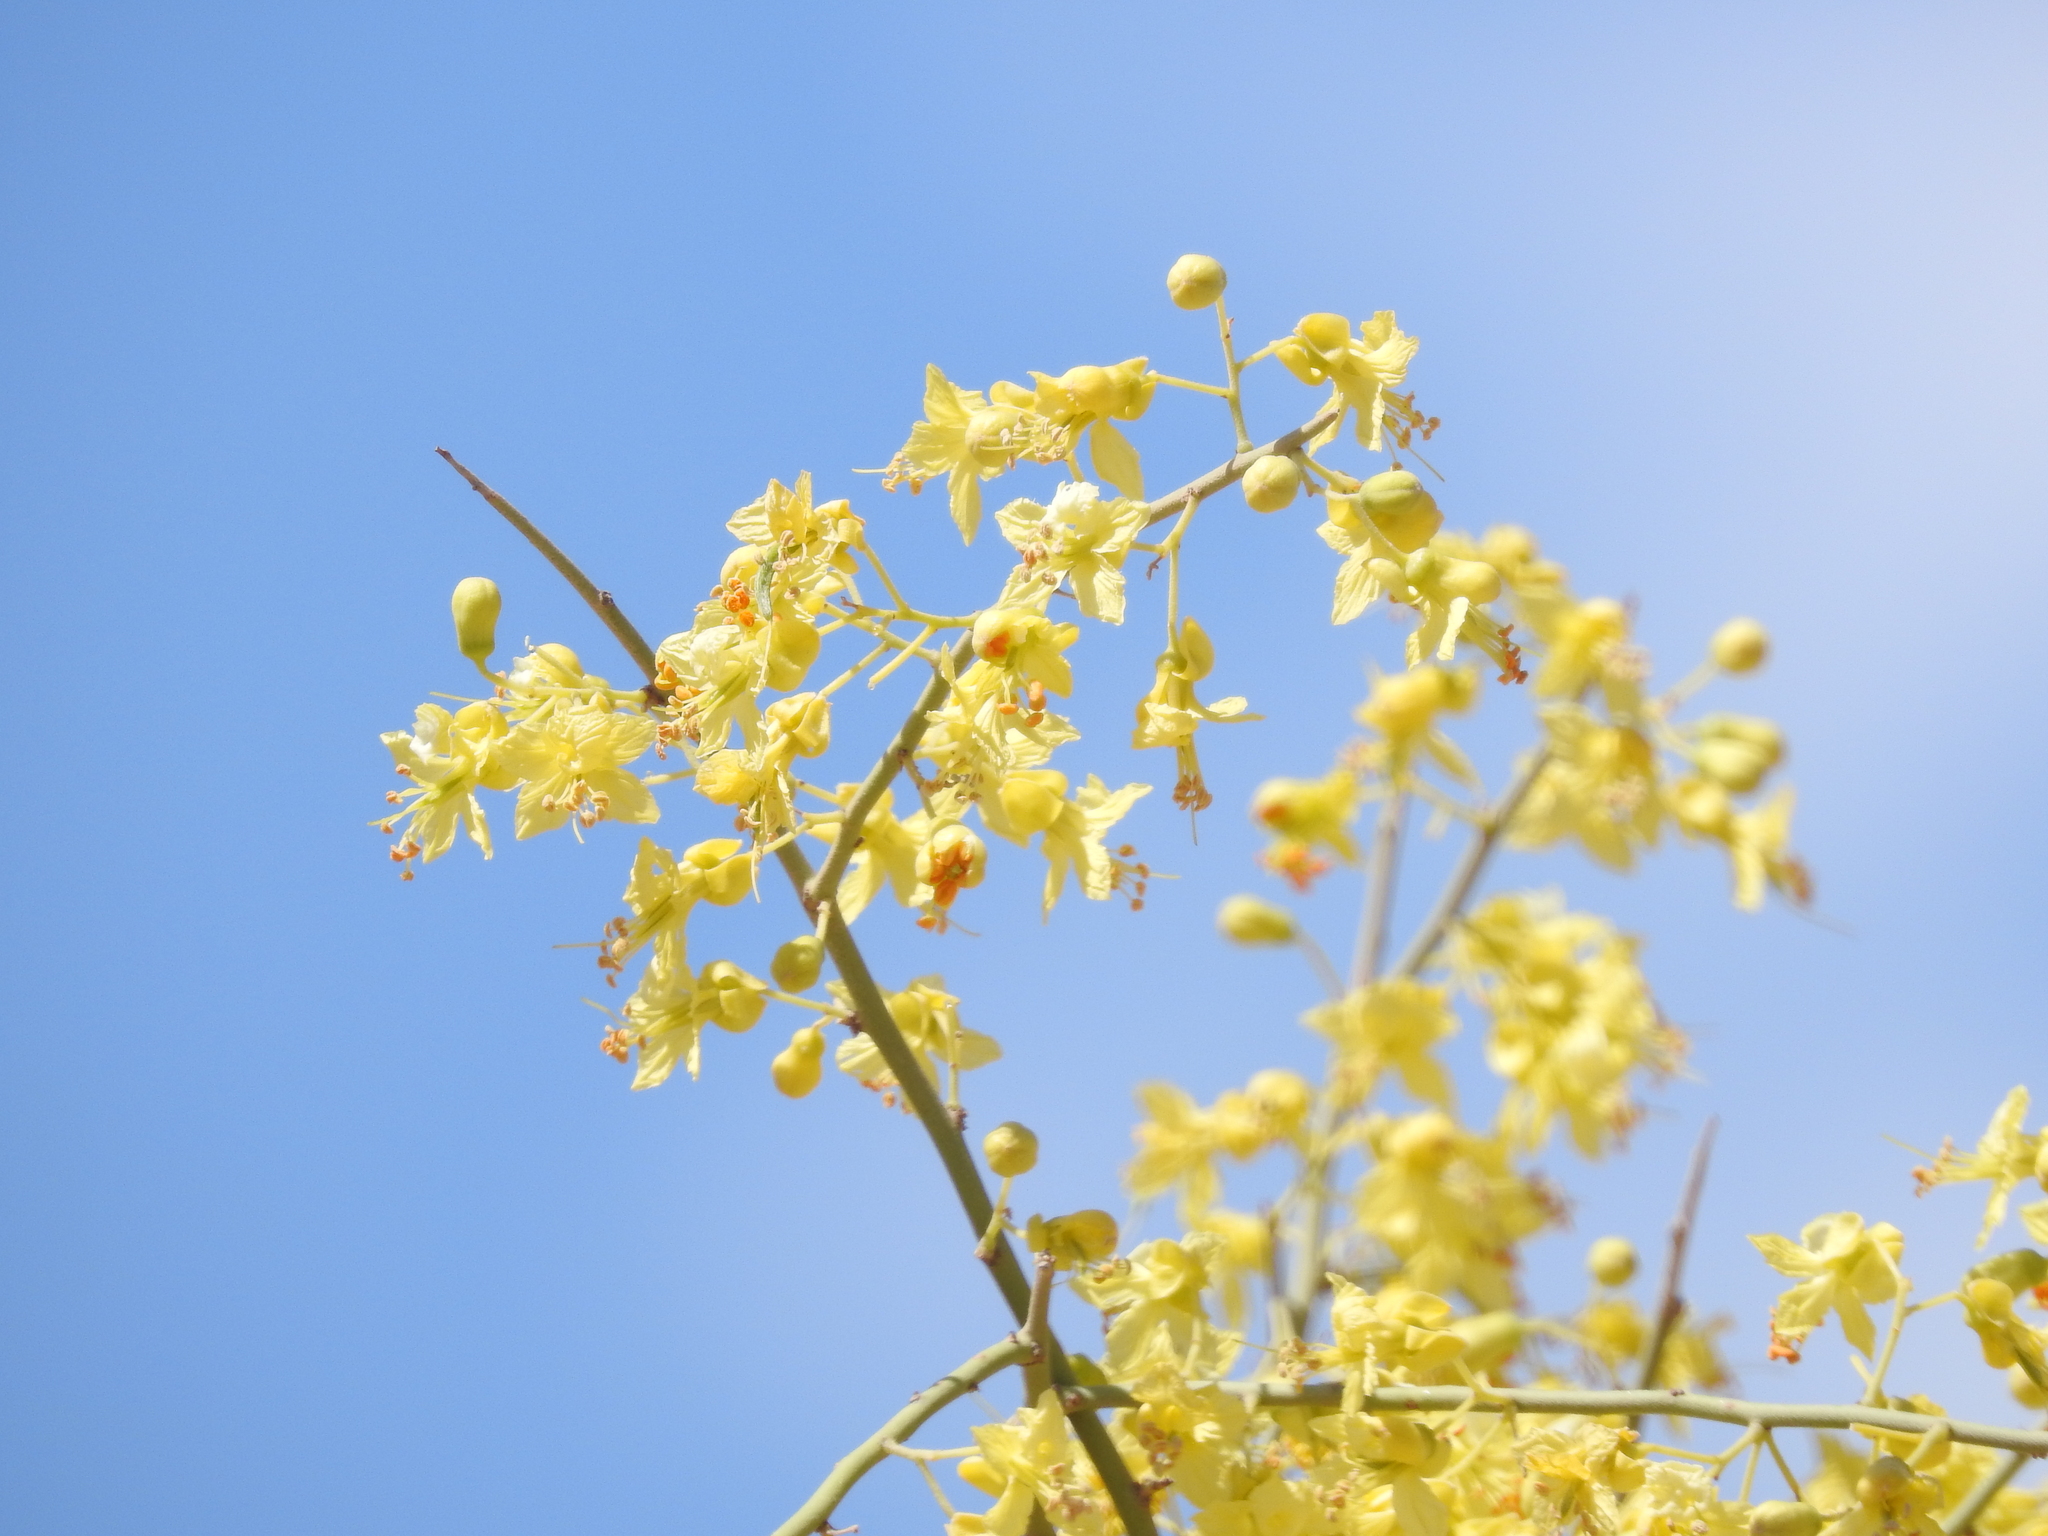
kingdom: Plantae
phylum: Tracheophyta
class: Magnoliopsida
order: Fabales
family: Fabaceae
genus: Parkinsonia
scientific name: Parkinsonia microphylla
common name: Yellow paloverde
